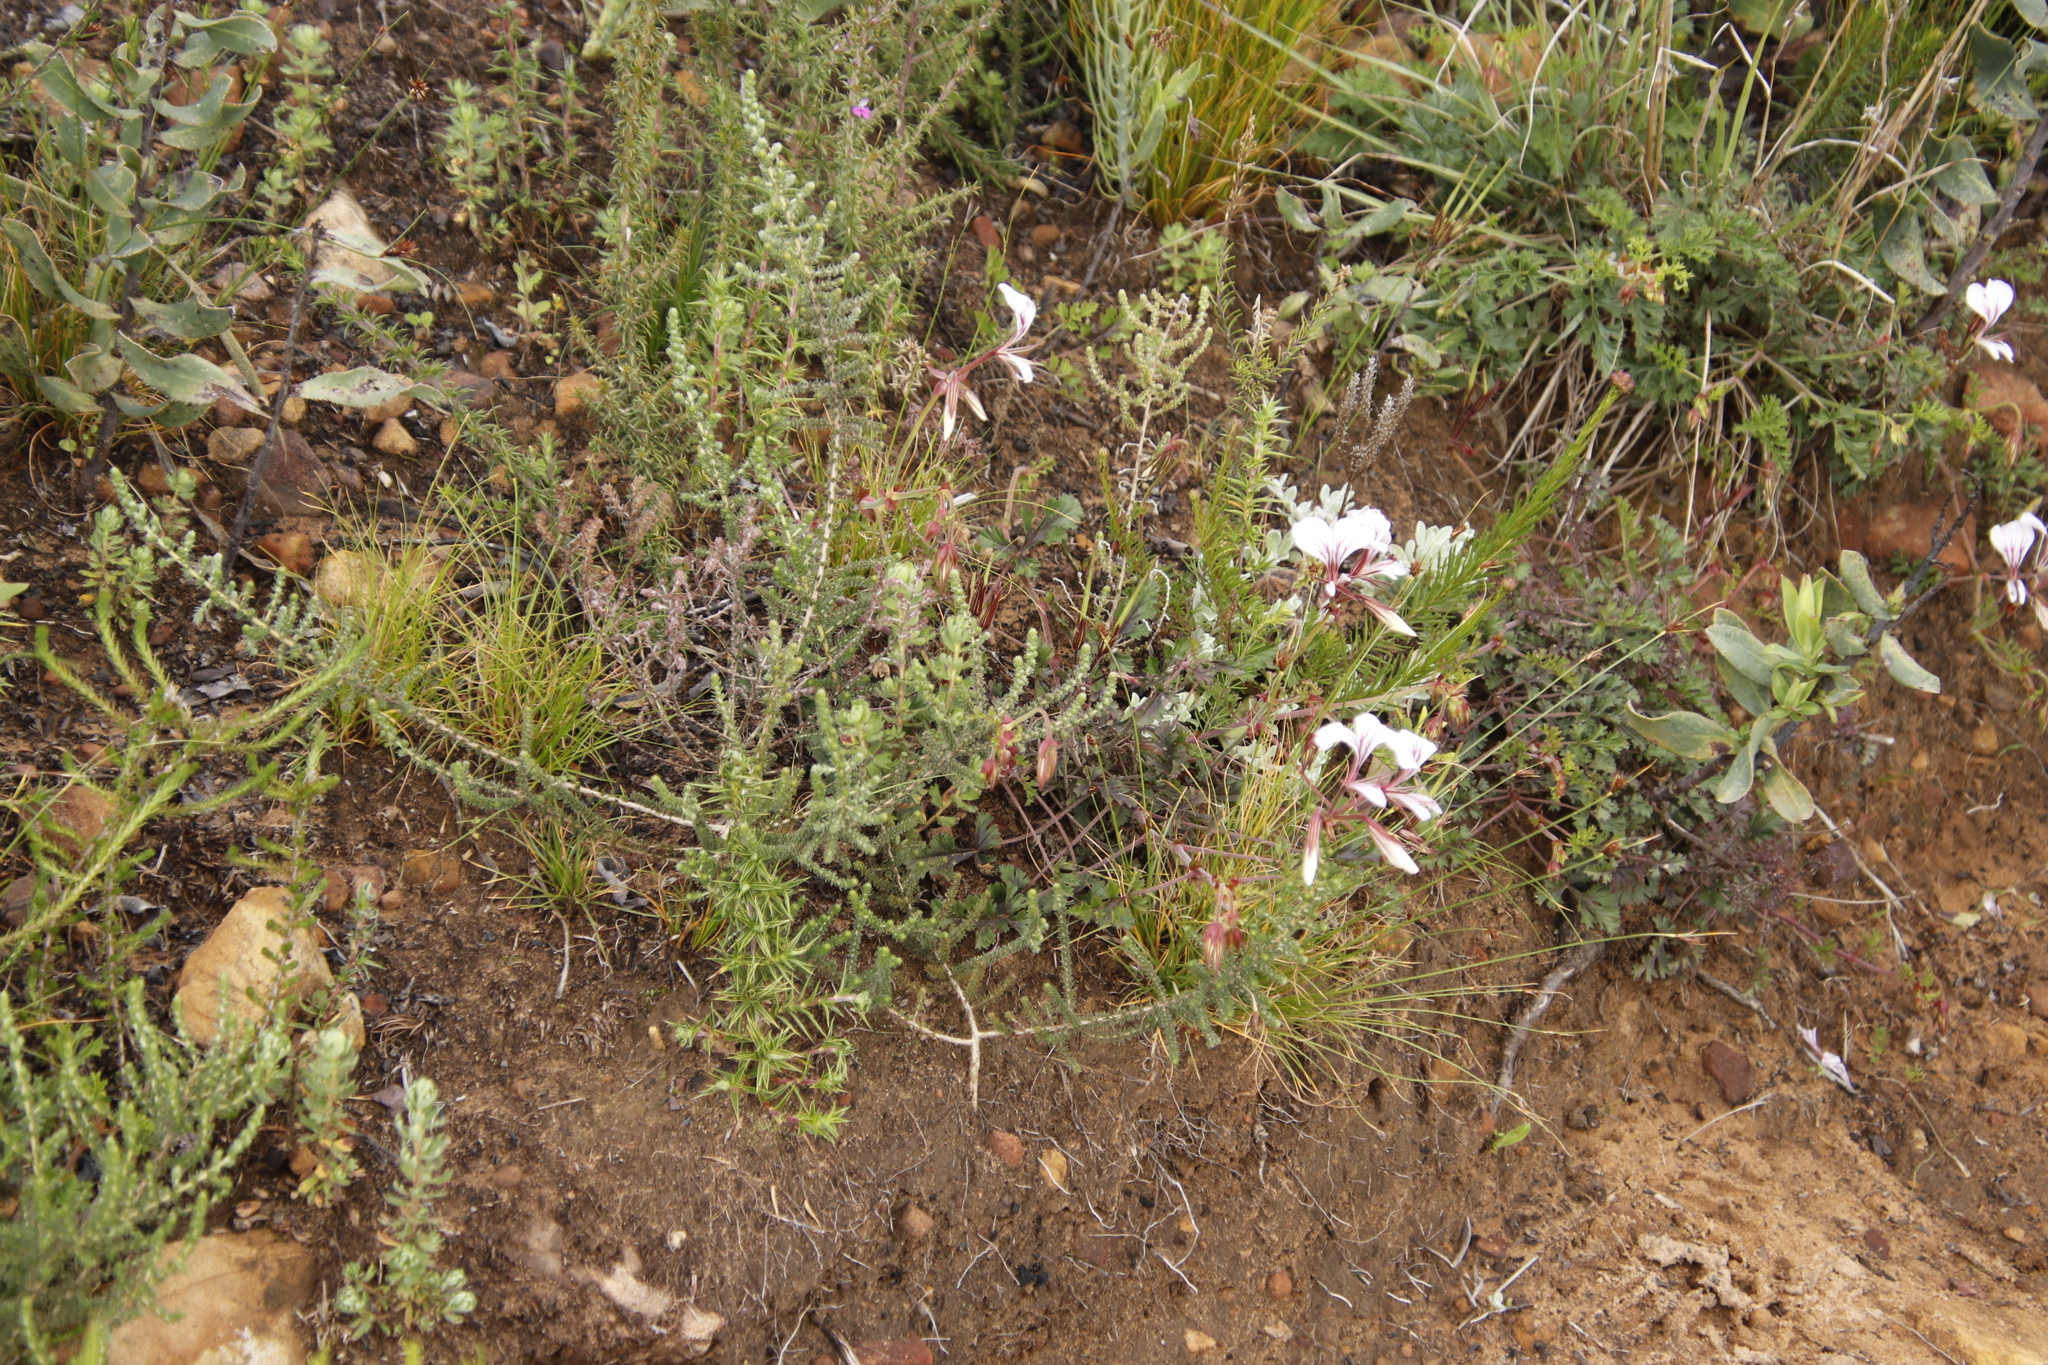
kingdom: Plantae
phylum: Tracheophyta
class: Magnoliopsida
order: Geraniales
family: Geraniaceae
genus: Pelargonium
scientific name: Pelargonium longicaule
